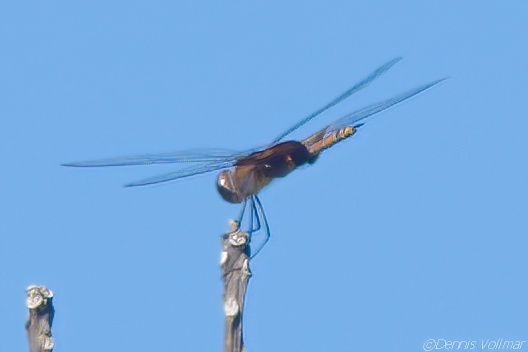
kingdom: Animalia
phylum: Arthropoda
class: Insecta
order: Odonata
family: Libellulidae
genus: Tramea
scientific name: Tramea onusta
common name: Red saddlebags
